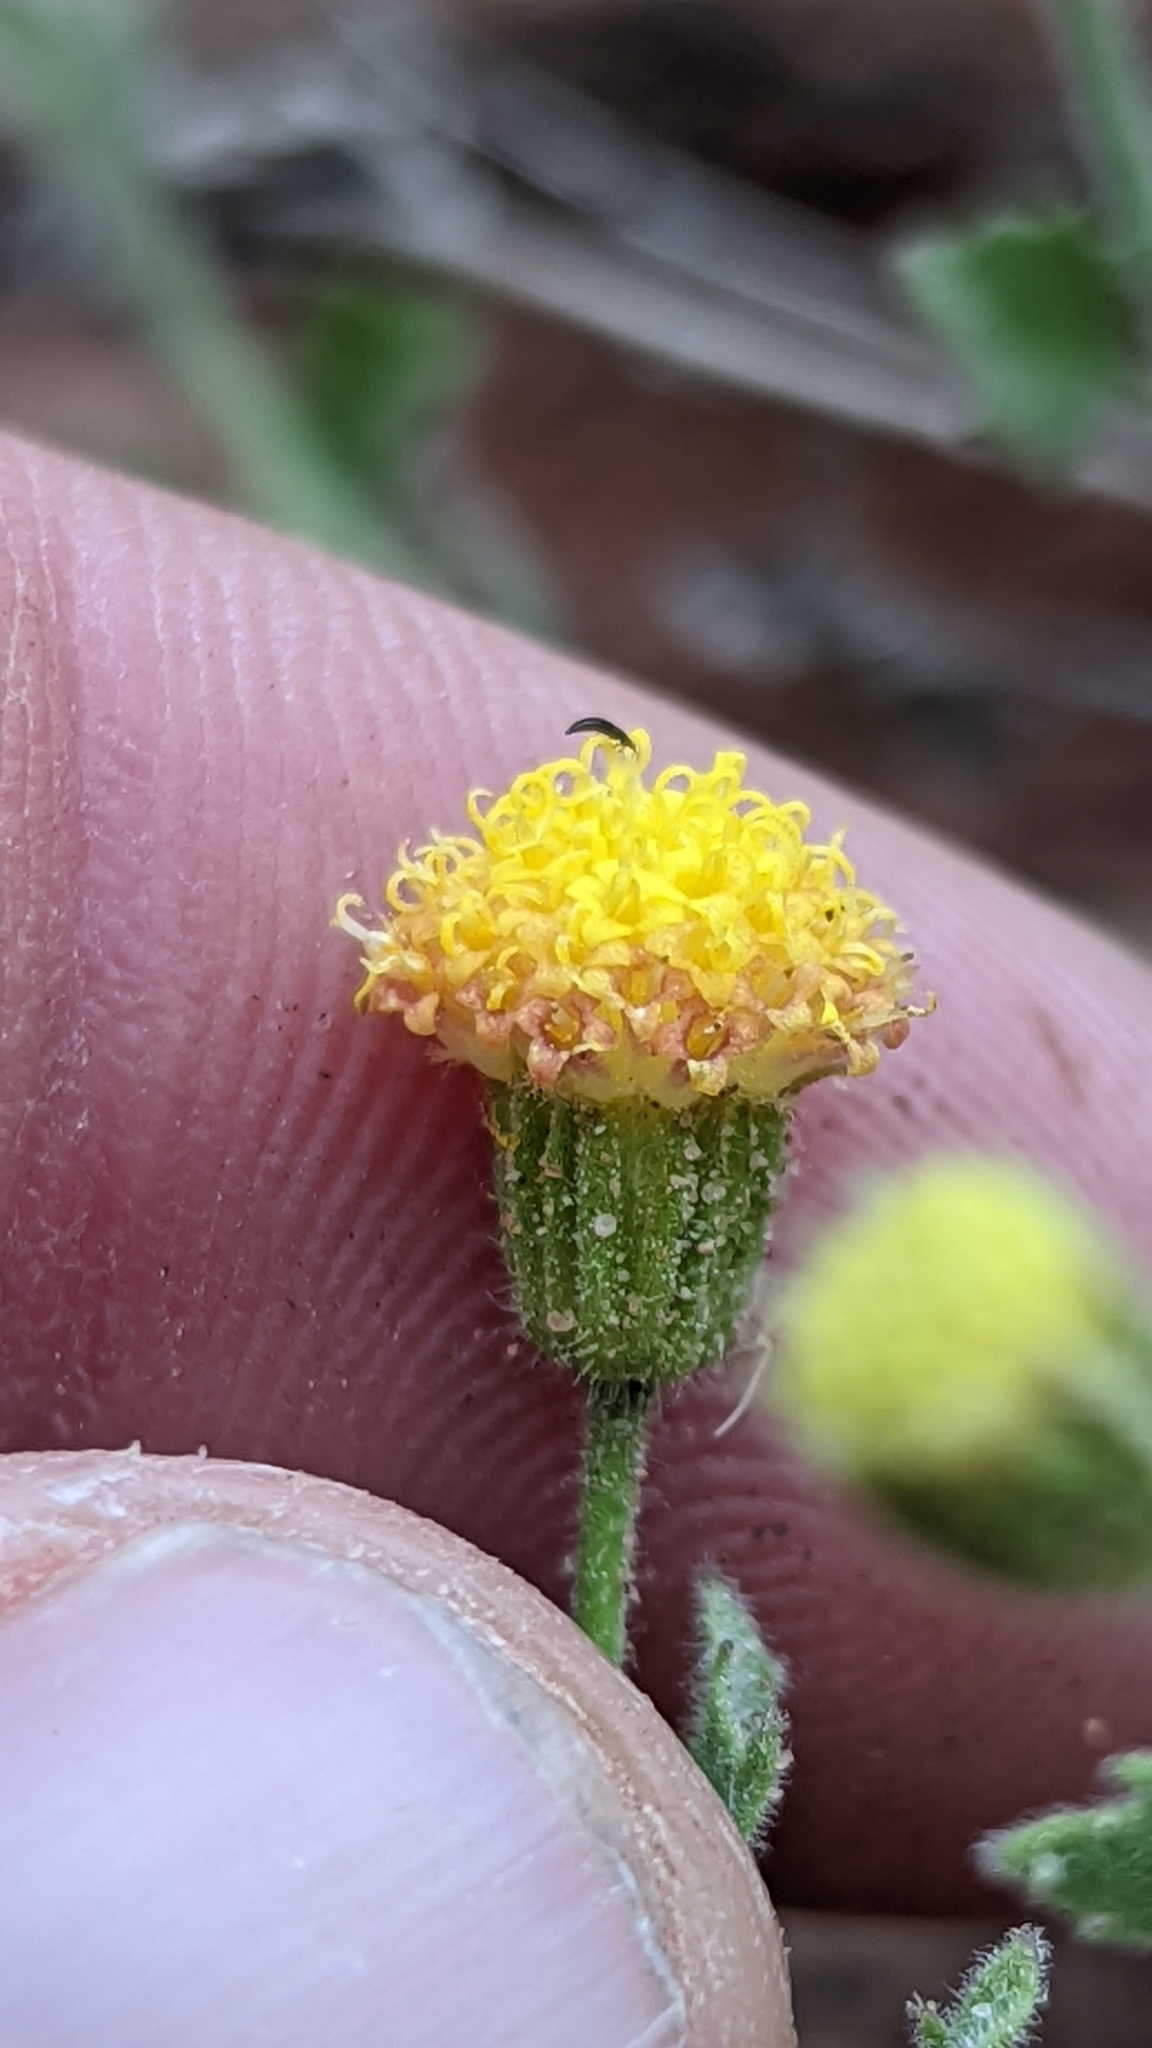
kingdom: Plantae
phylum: Tracheophyta
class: Magnoliopsida
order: Asterales
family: Asteraceae
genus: Laphamia
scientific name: Laphamia sanchezii
